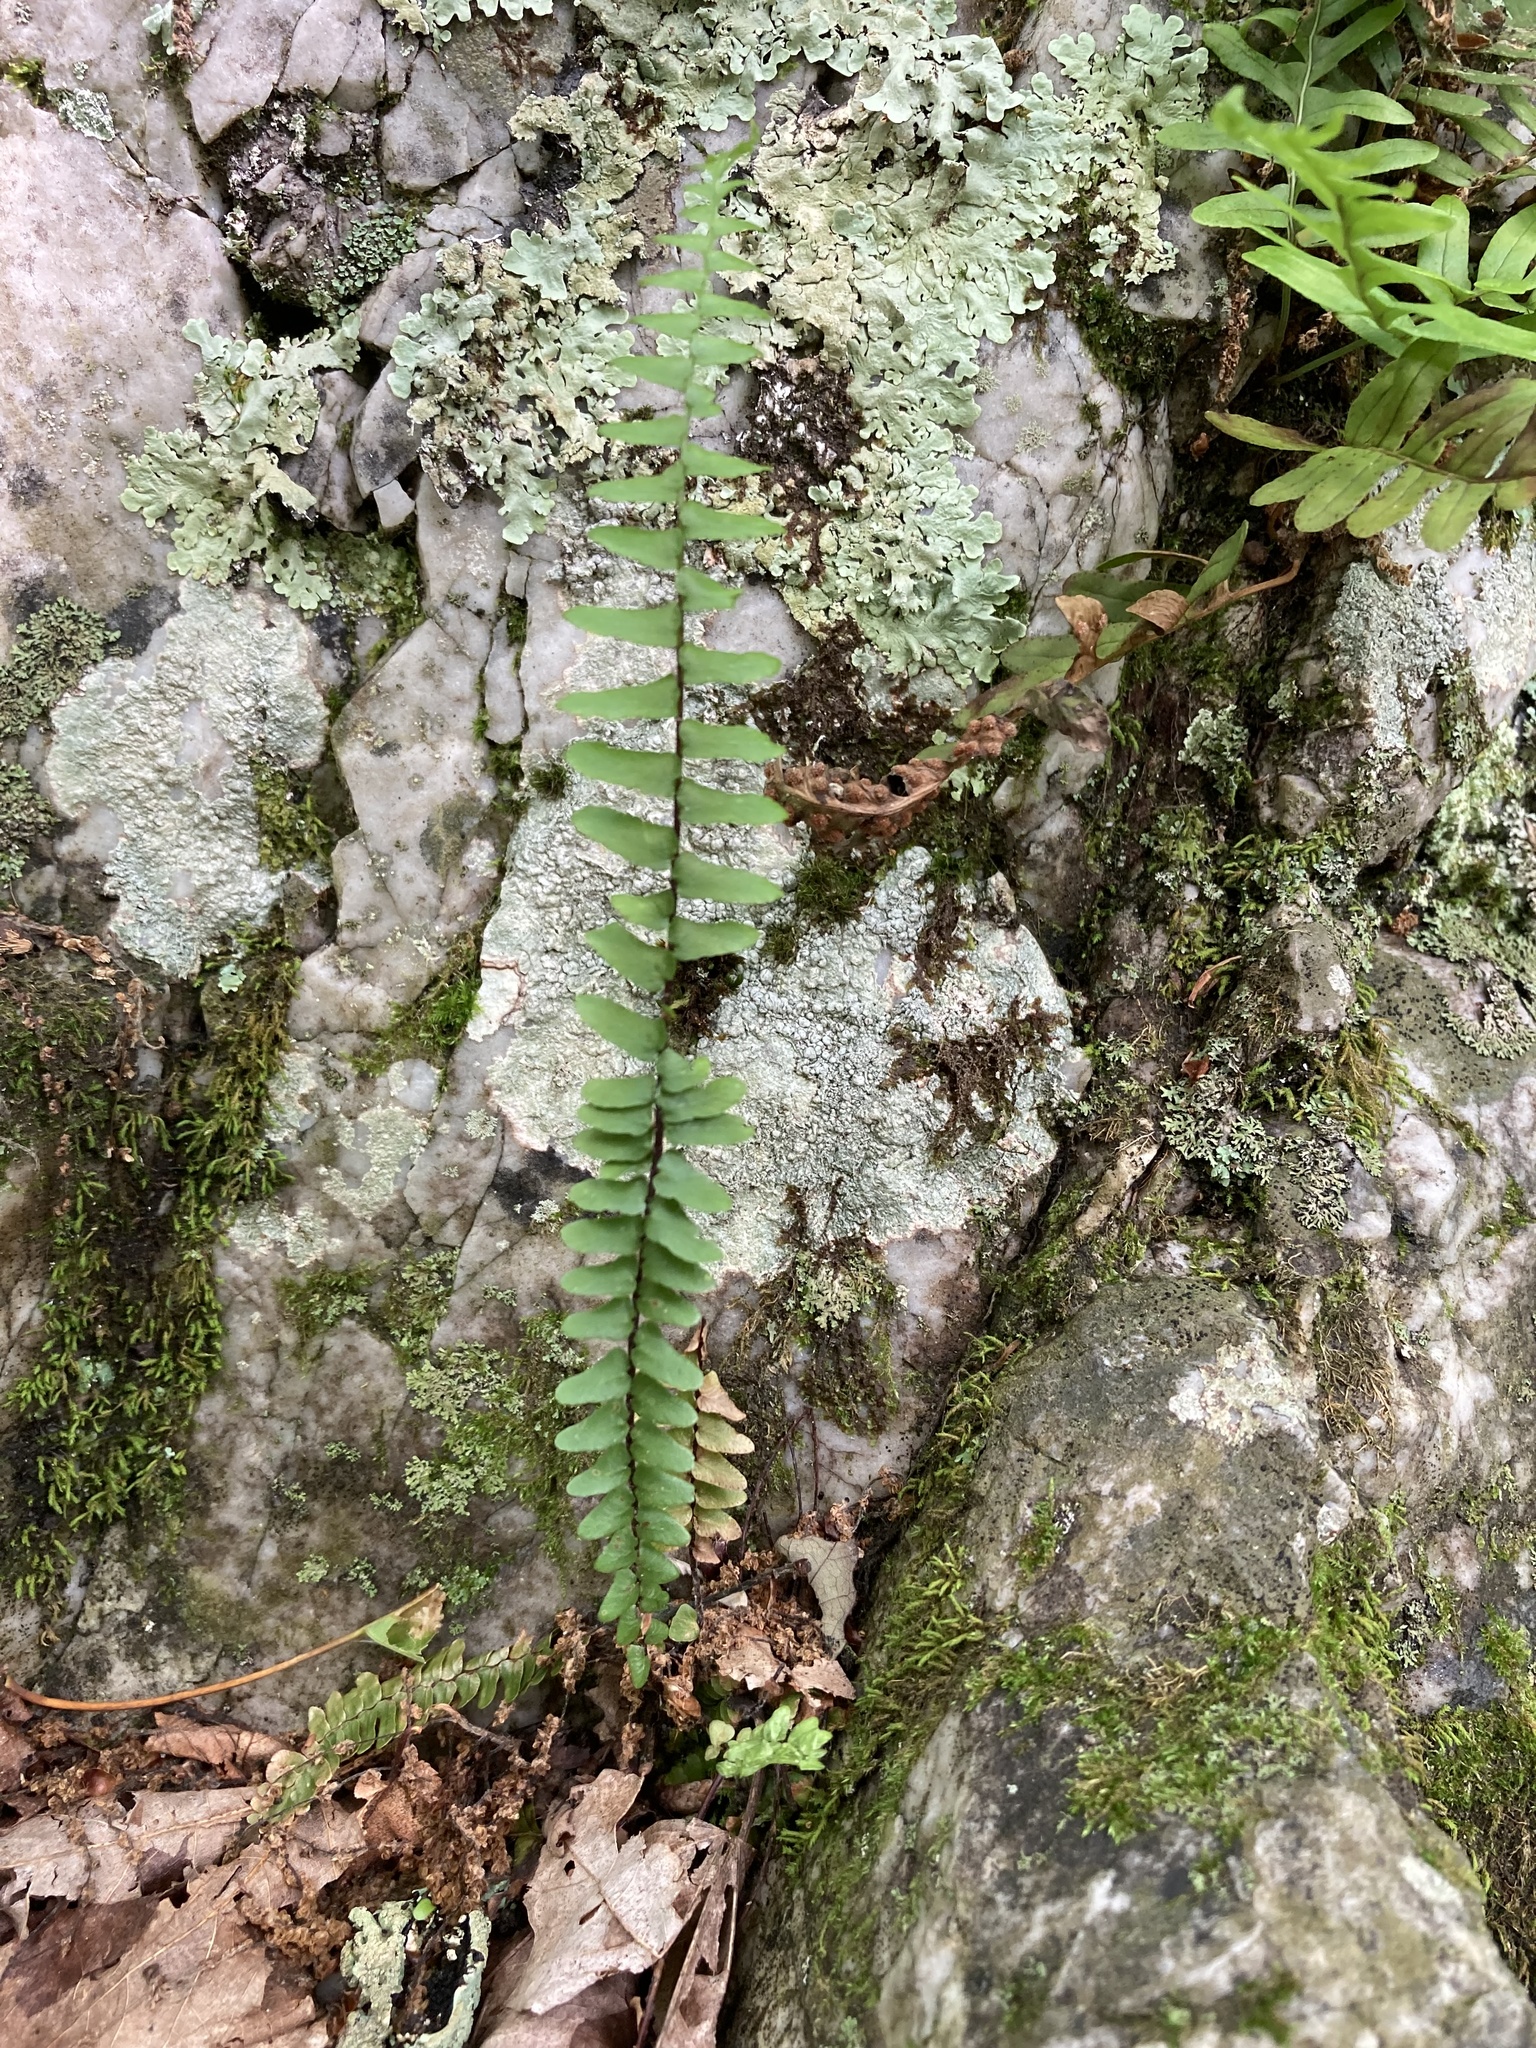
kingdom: Plantae
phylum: Tracheophyta
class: Polypodiopsida
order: Polypodiales
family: Aspleniaceae
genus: Asplenium
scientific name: Asplenium platyneuron
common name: Ebony spleenwort
